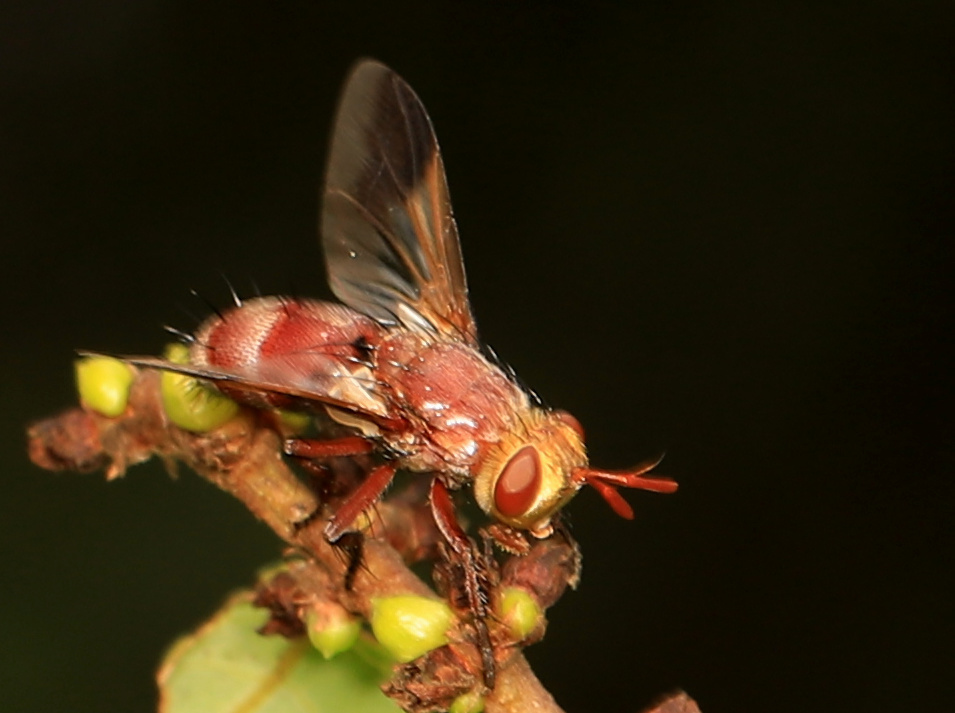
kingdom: Animalia
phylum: Arthropoda
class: Insecta
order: Diptera
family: Tachinidae
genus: Chromatophania
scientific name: Chromatophania picta
